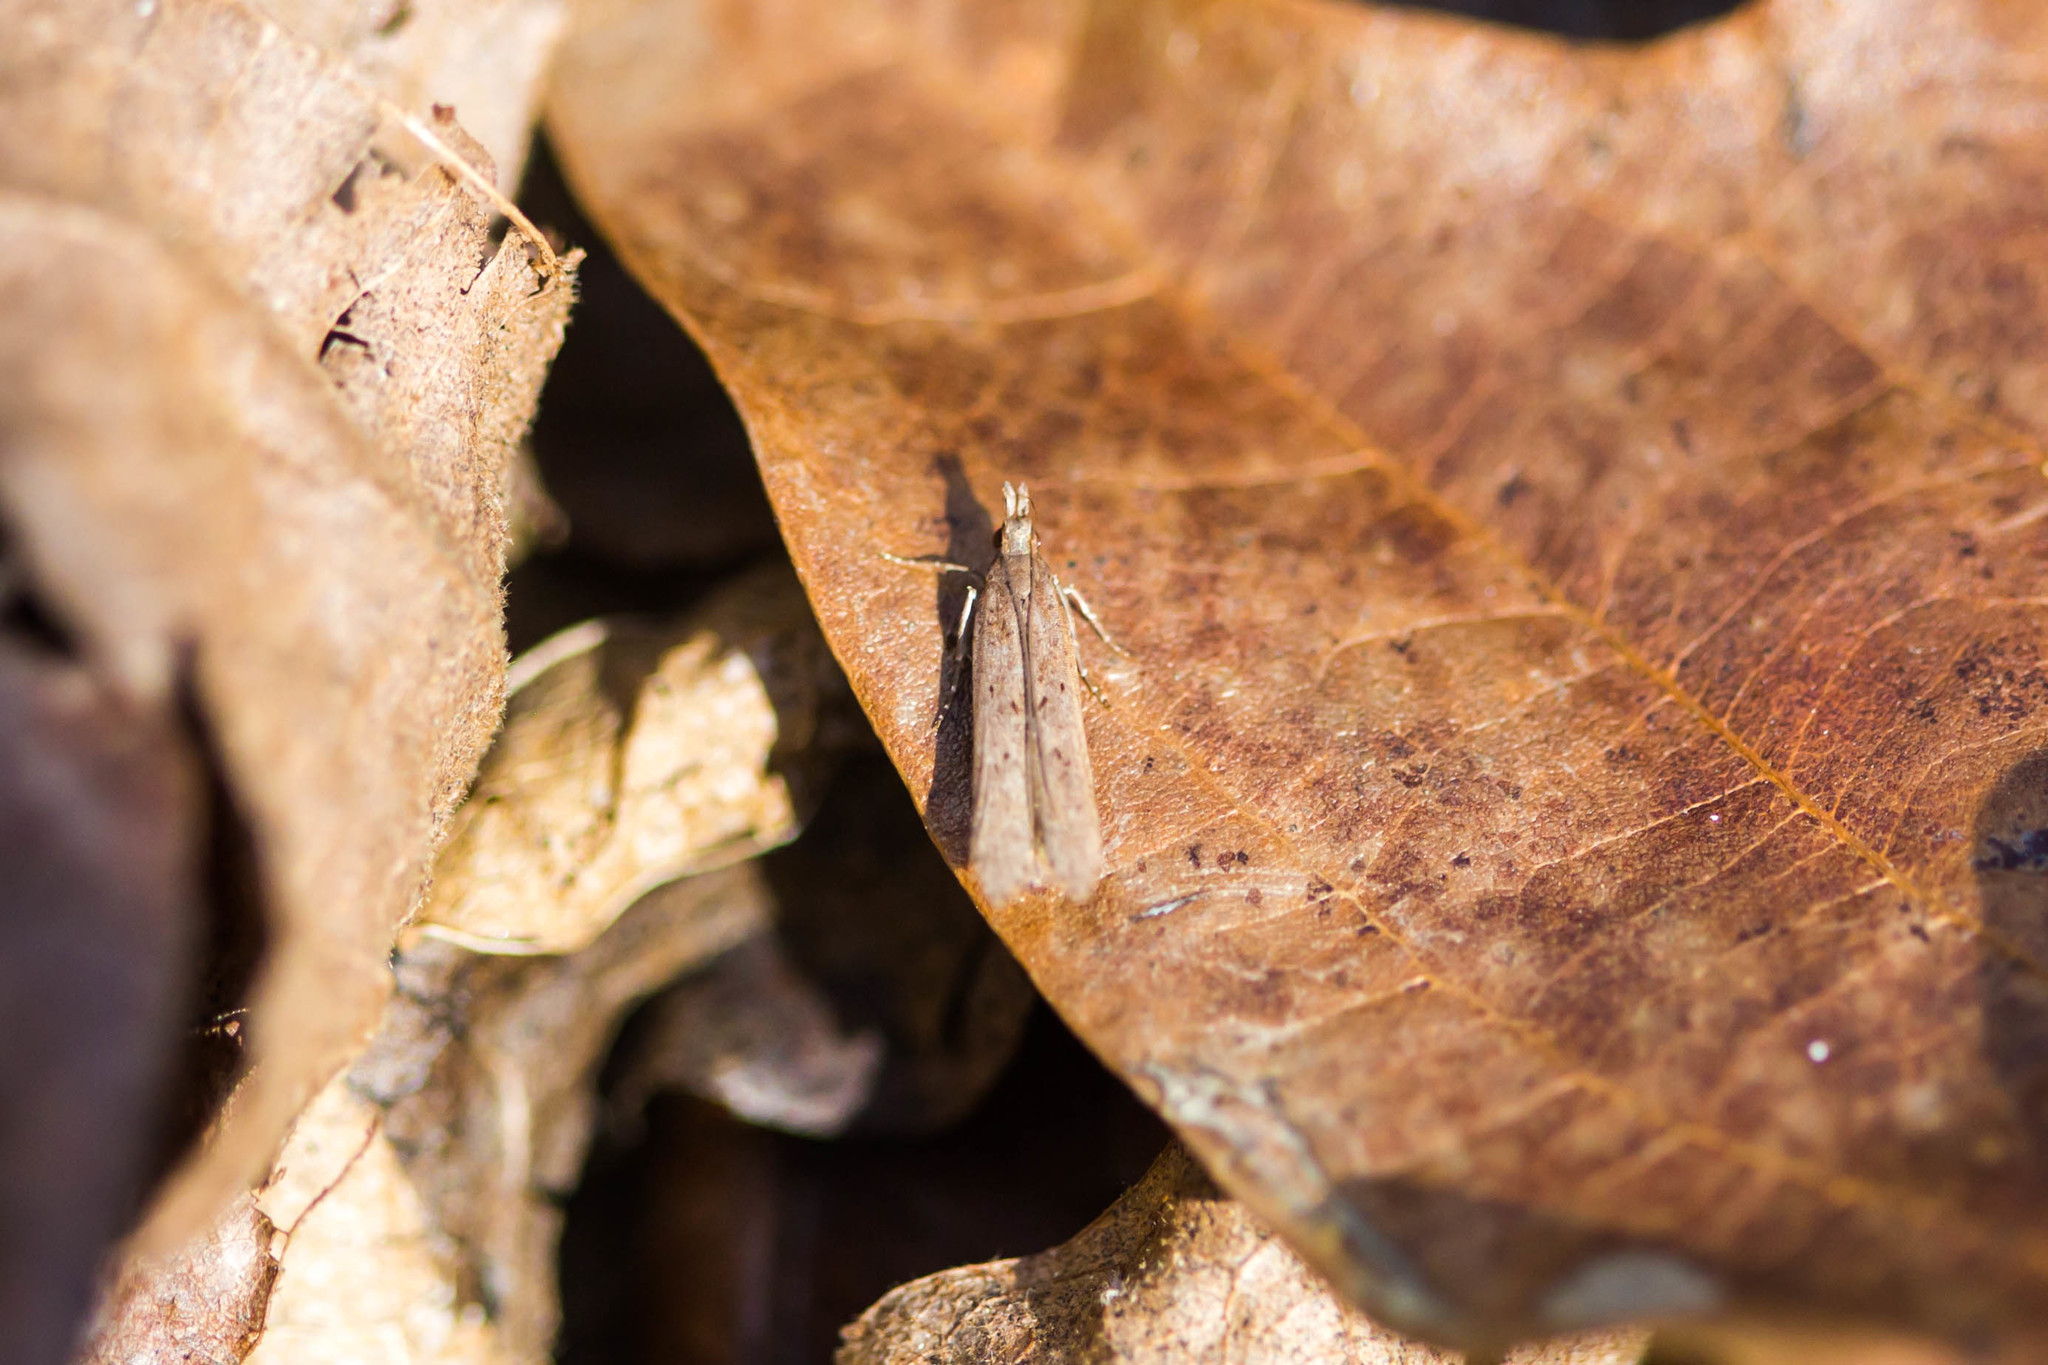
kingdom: Animalia
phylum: Arthropoda
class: Insecta
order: Lepidoptera
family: Gelechiidae
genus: Dichomeris
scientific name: Dichomeris ligulella
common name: Moth
